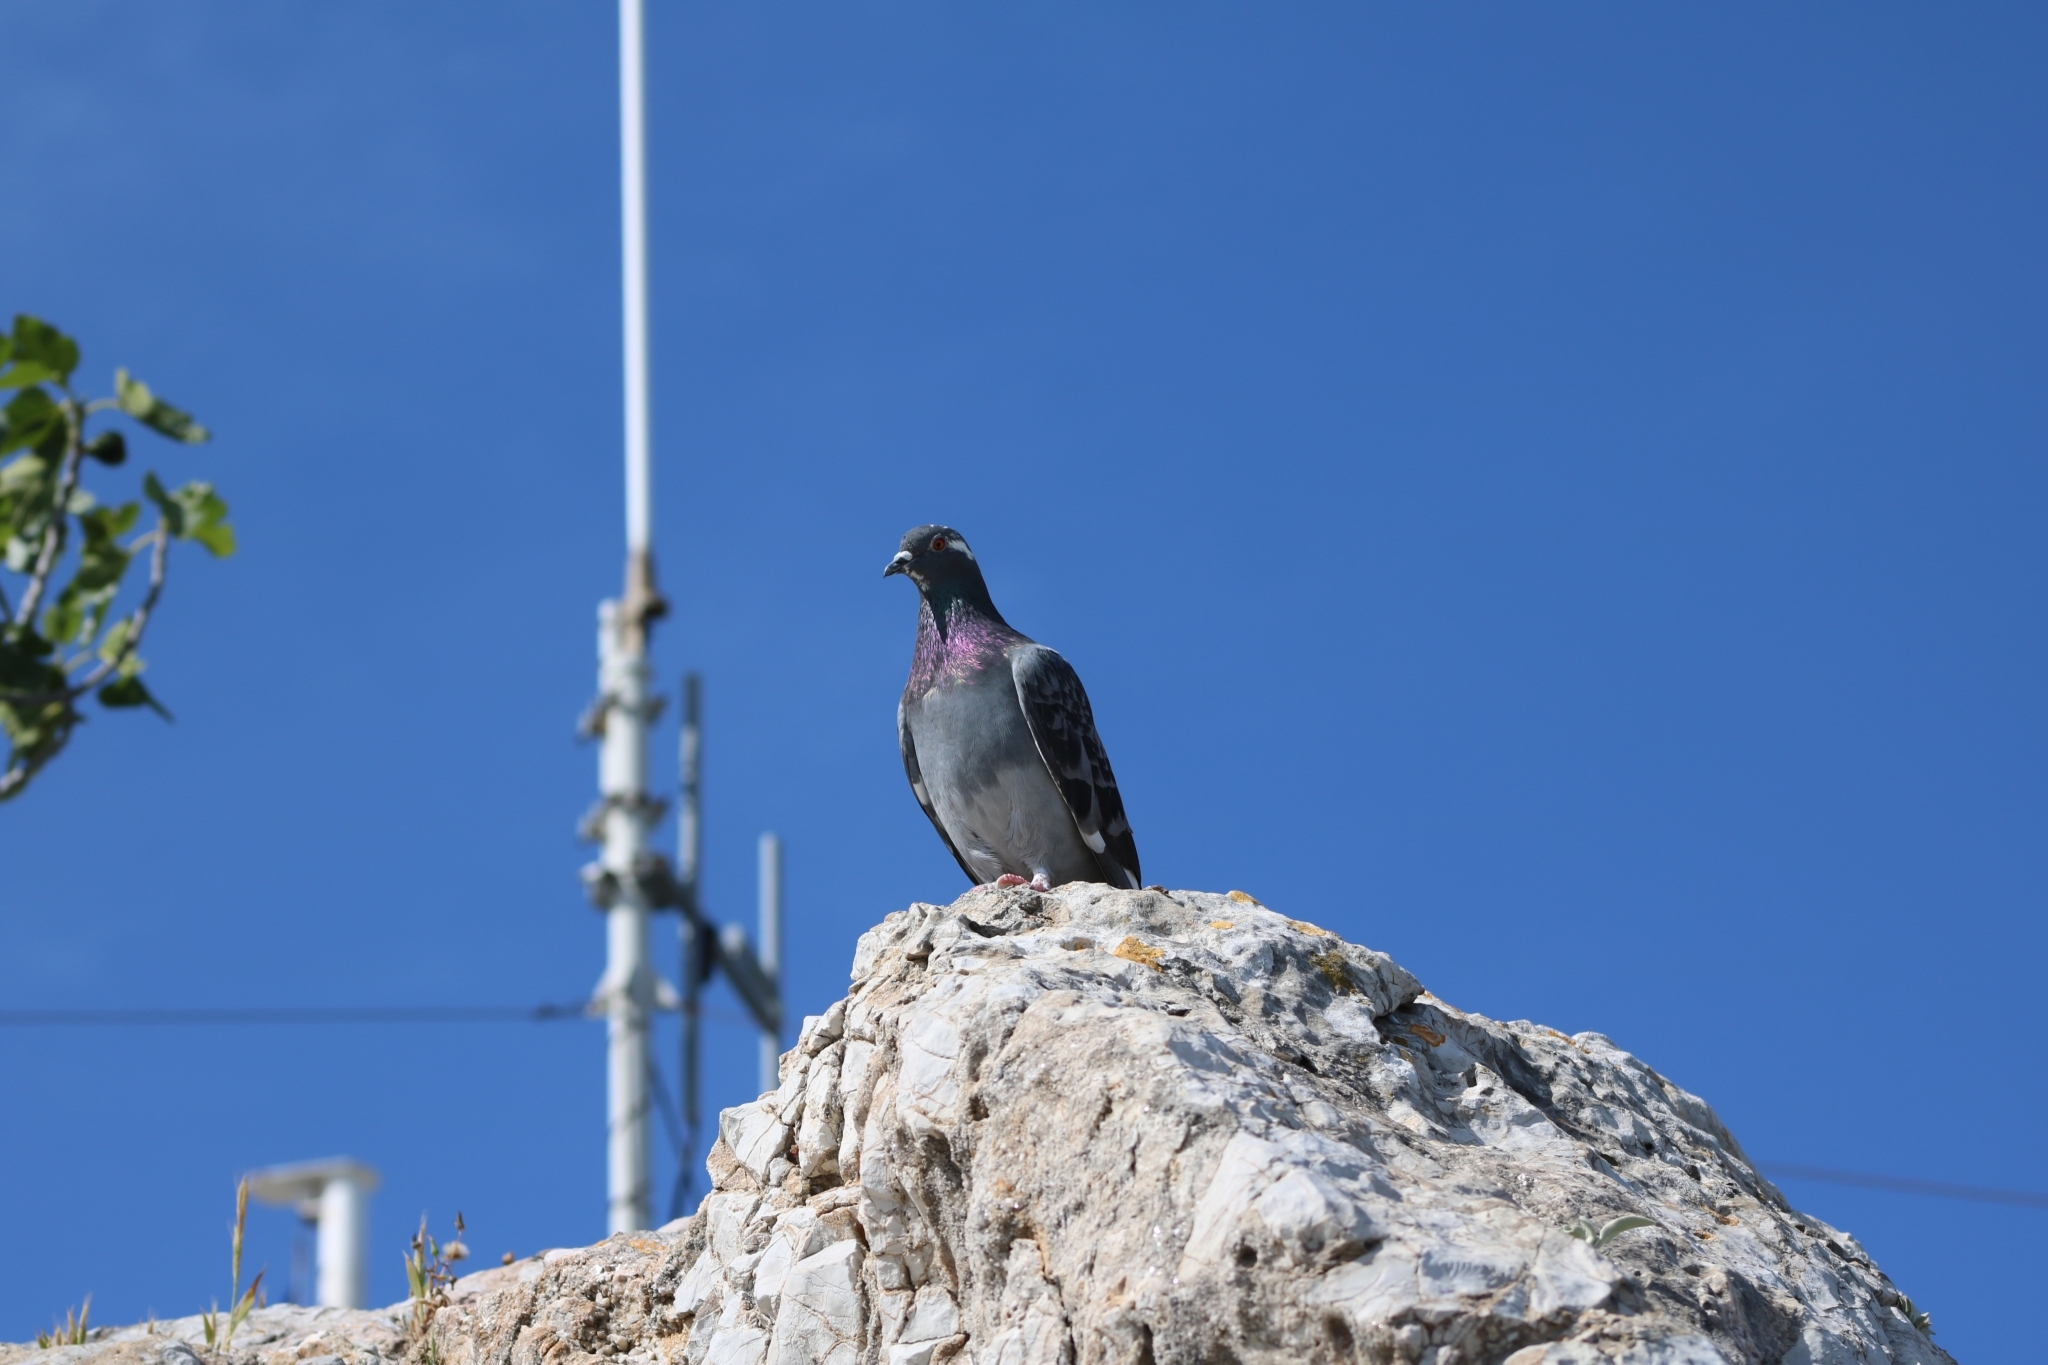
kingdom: Animalia
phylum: Chordata
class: Aves
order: Columbiformes
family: Columbidae
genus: Columba
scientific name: Columba livia
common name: Rock pigeon
